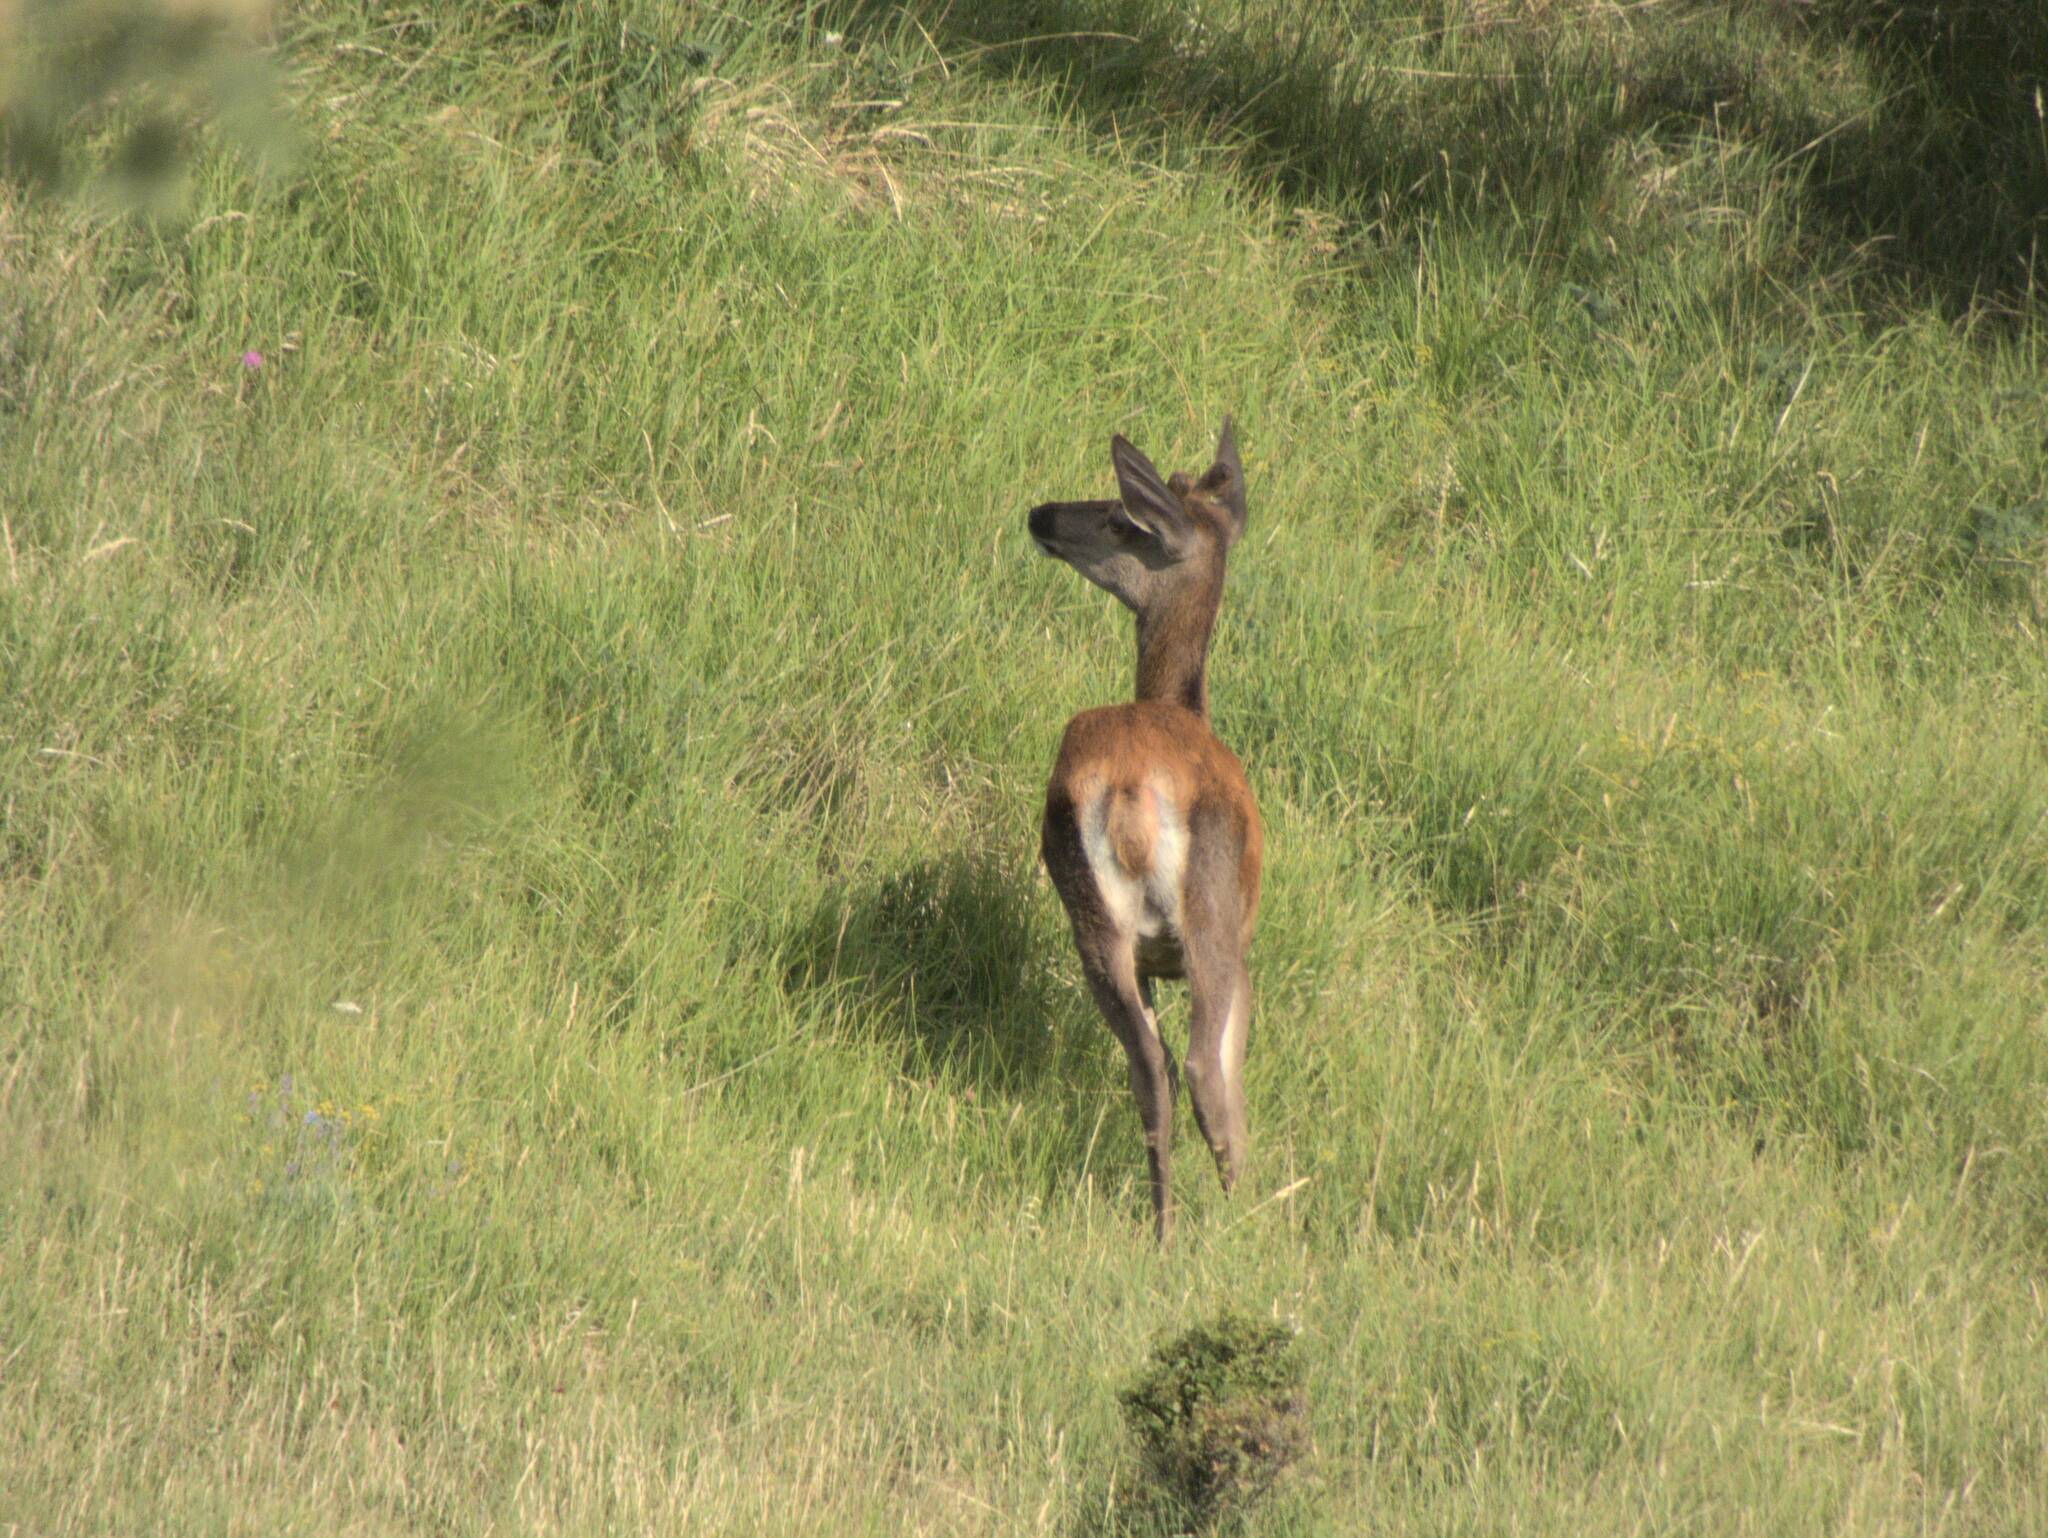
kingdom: Animalia
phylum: Chordata
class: Mammalia
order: Artiodactyla
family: Cervidae
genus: Cervus
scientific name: Cervus elaphus
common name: Red deer
